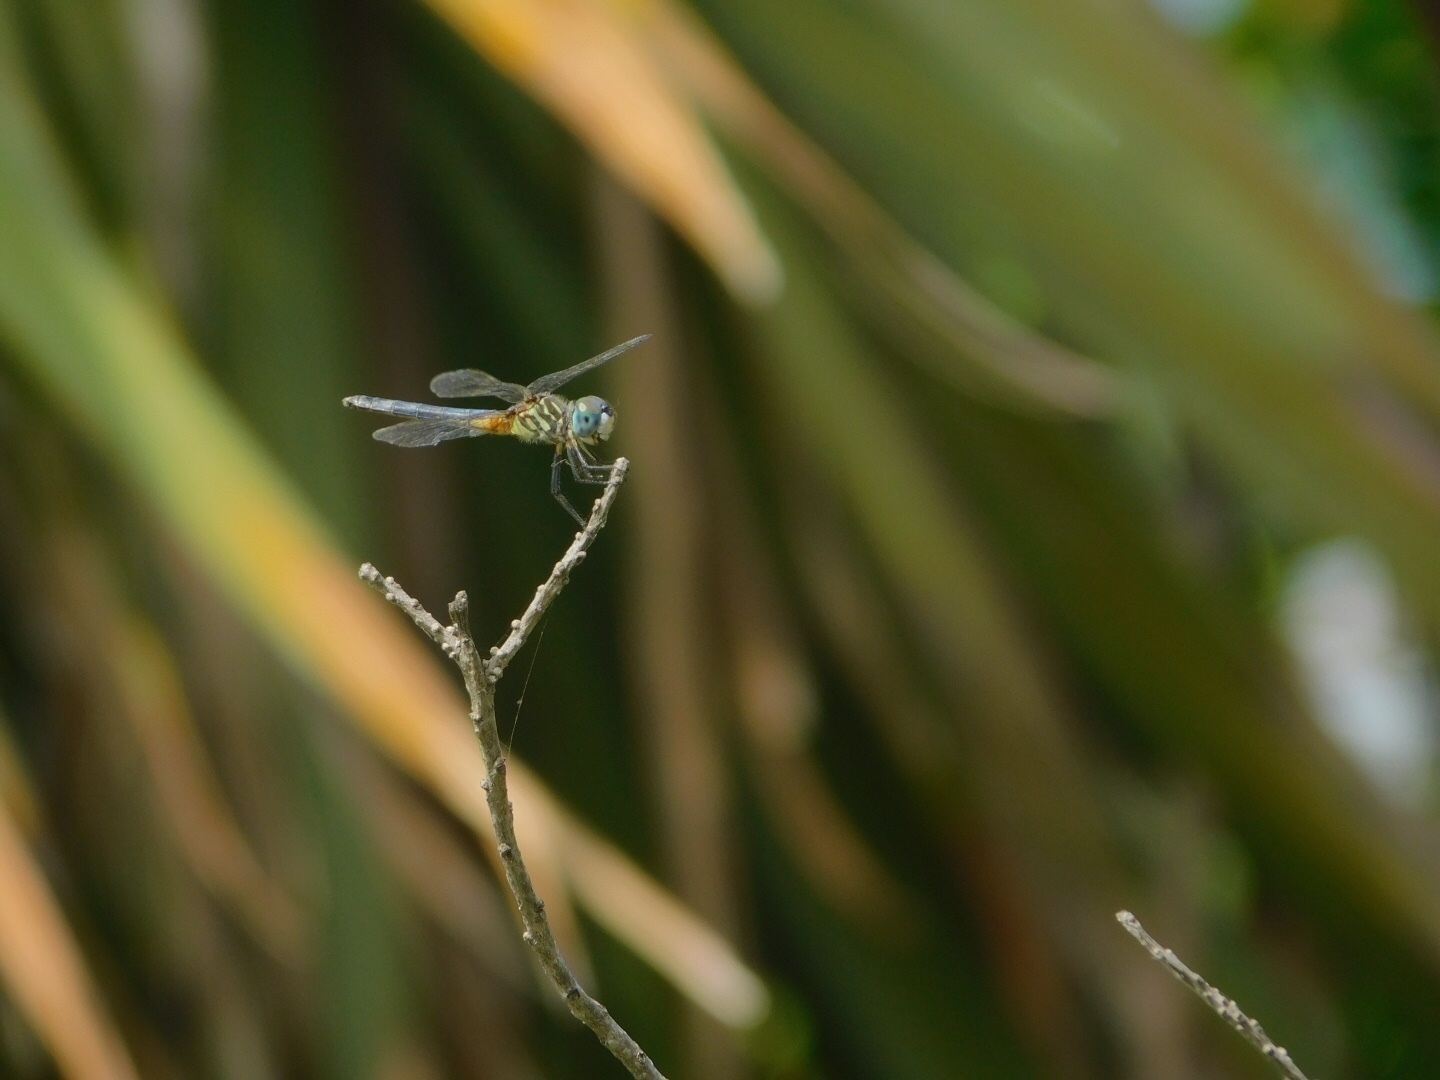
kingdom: Animalia
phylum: Arthropoda
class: Insecta
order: Odonata
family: Libellulidae
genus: Pachydiplax
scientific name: Pachydiplax longipennis
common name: Blue dasher
